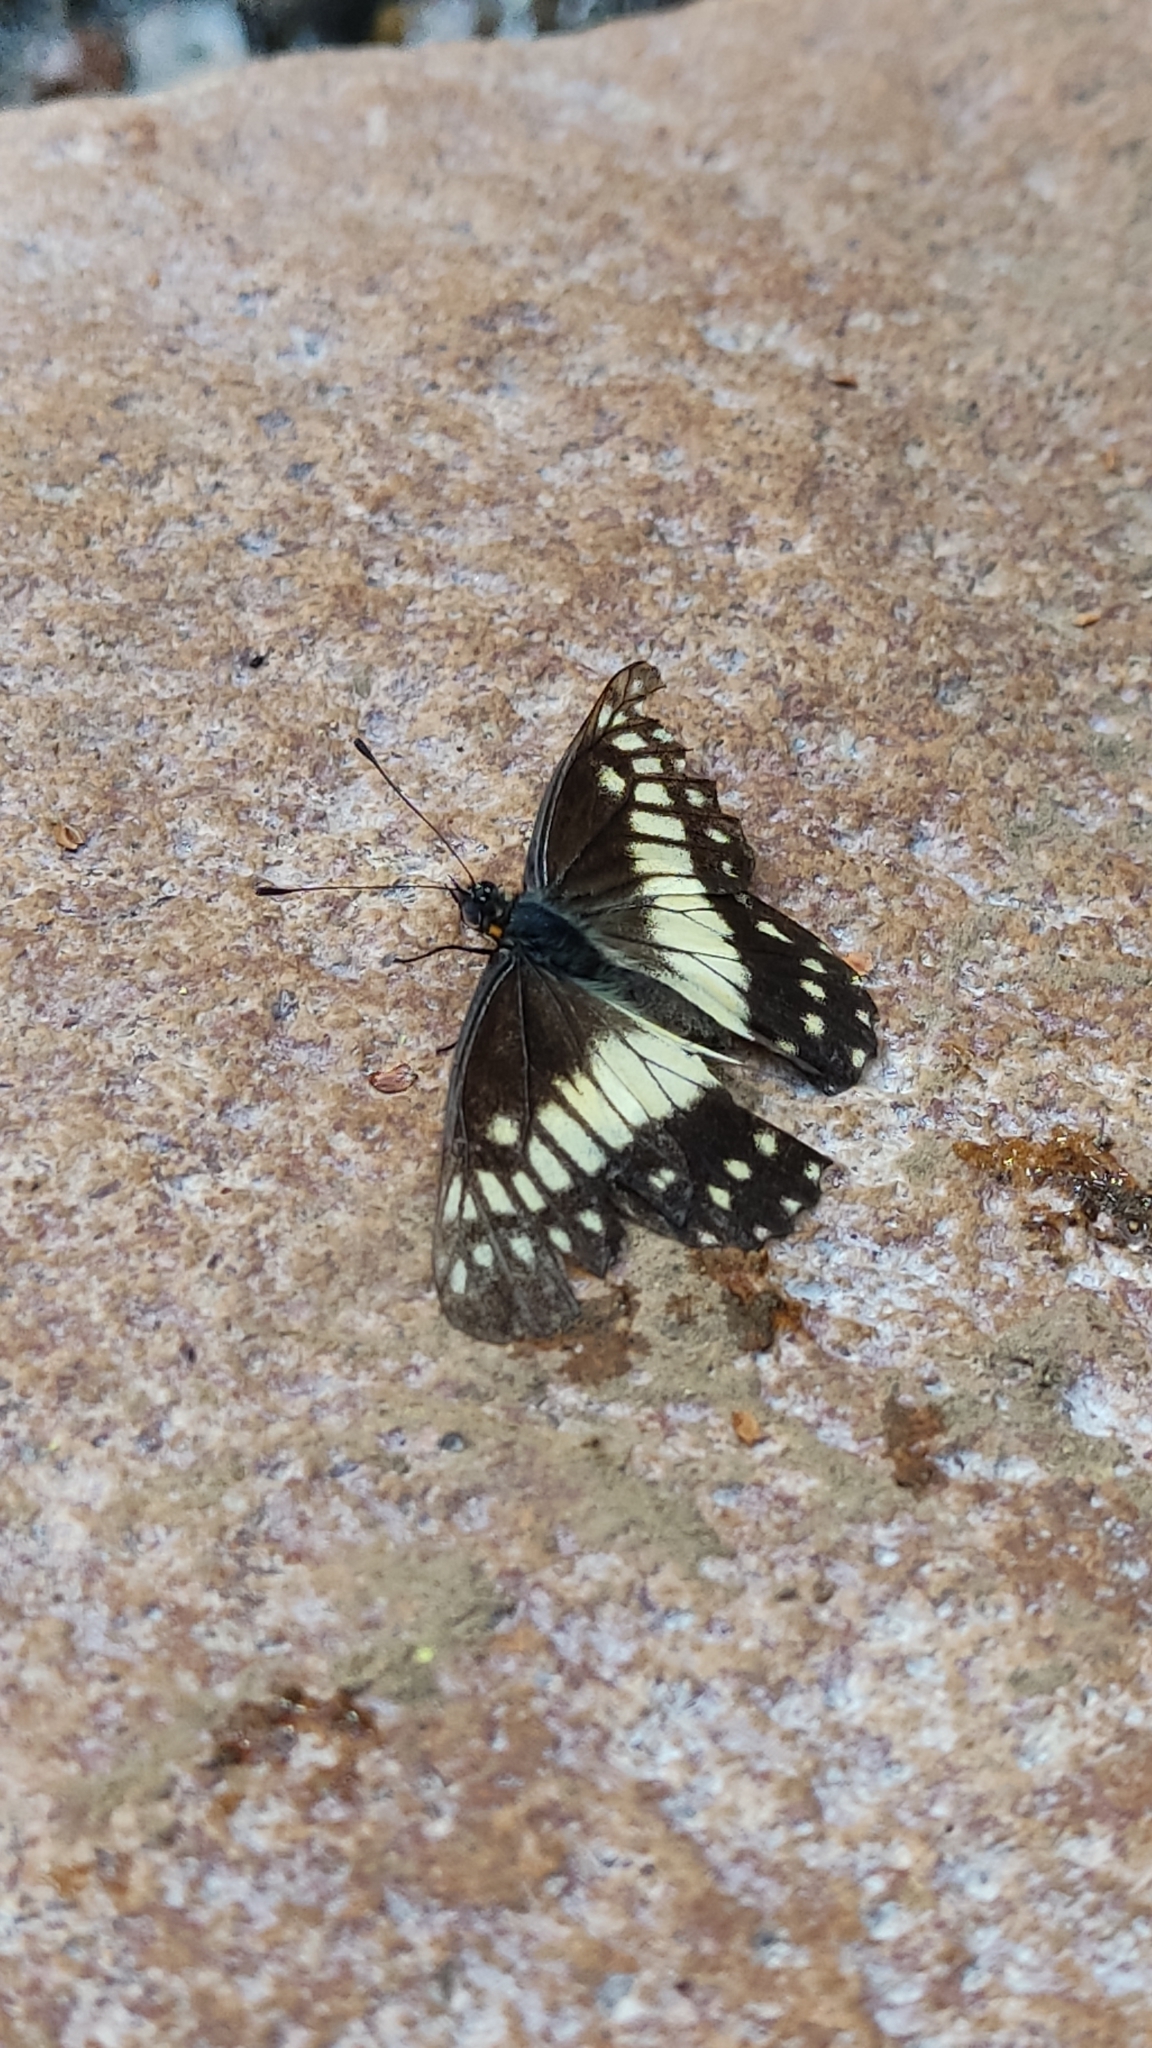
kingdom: Animalia
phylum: Arthropoda
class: Insecta
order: Lepidoptera
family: Pieridae
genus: Archonias
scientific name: Archonias nimbice
